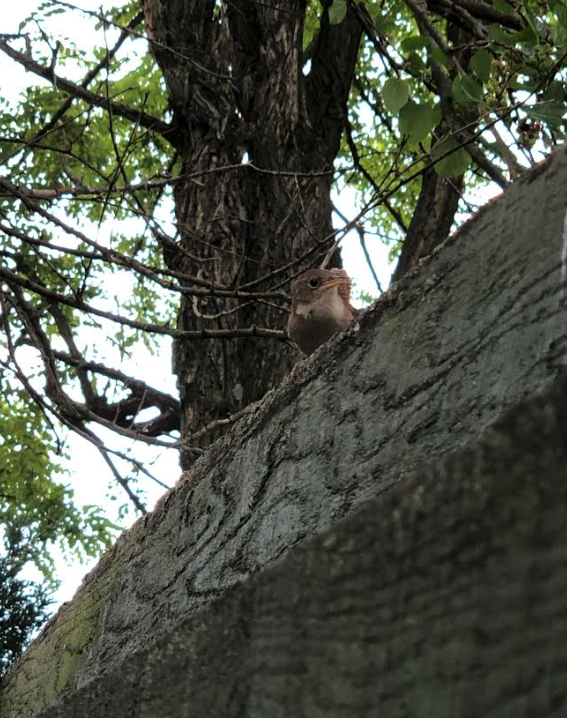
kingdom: Animalia
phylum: Chordata
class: Aves
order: Passeriformes
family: Troglodytidae
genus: Troglodytes
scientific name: Troglodytes aedon
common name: House wren
